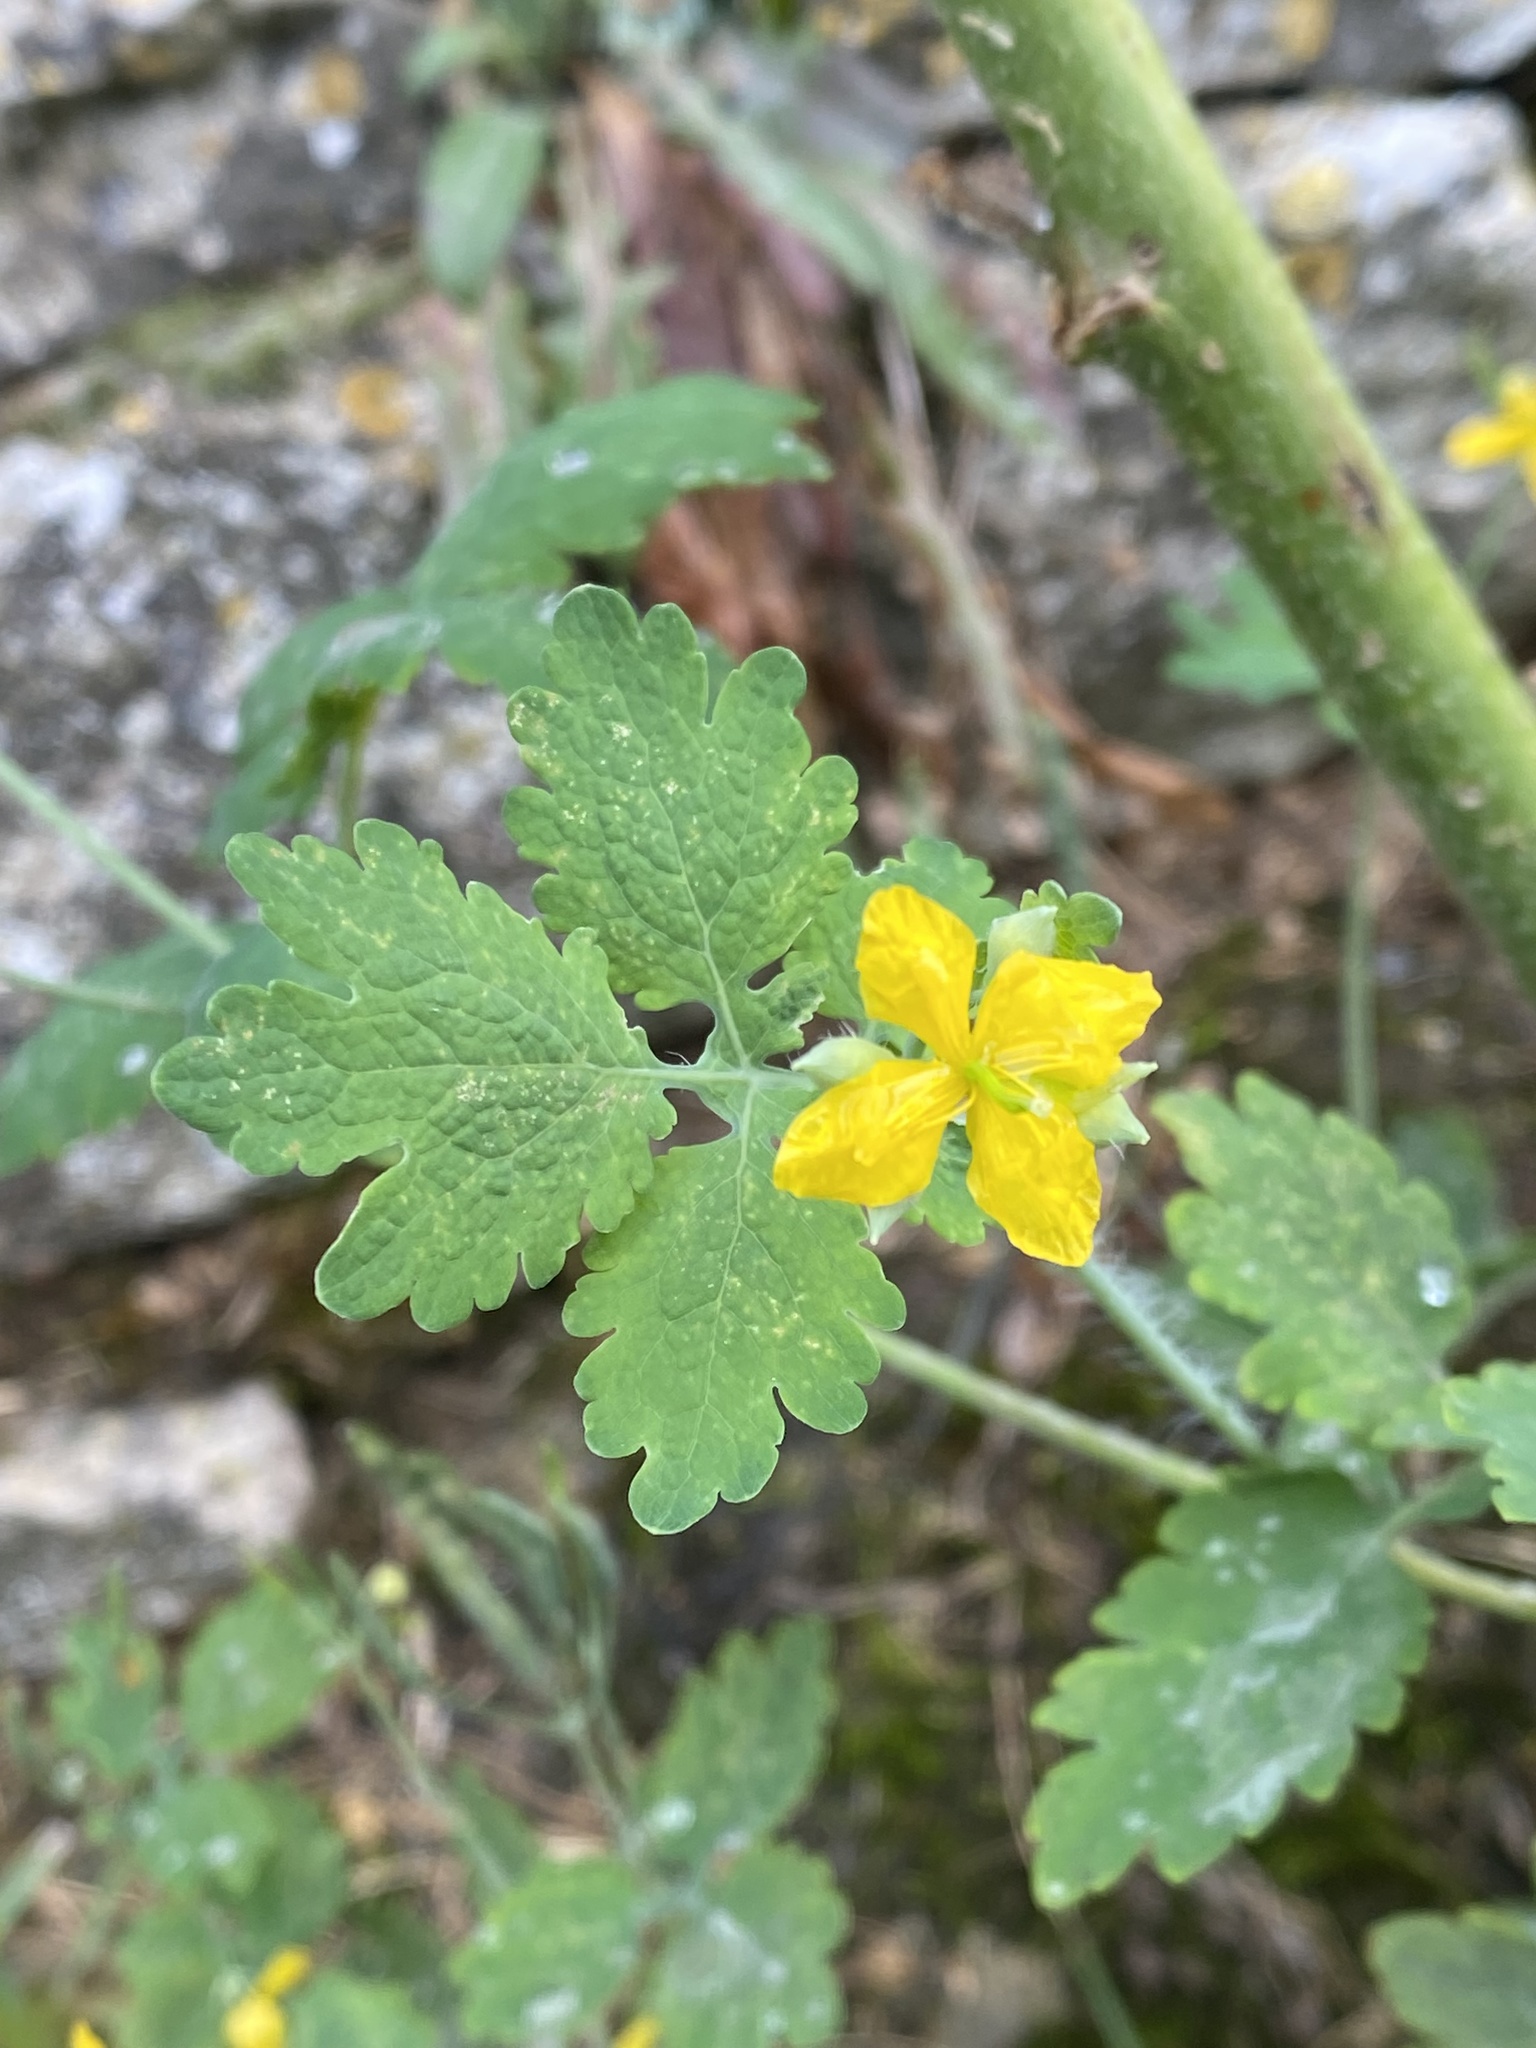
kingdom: Plantae
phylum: Tracheophyta
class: Magnoliopsida
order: Ranunculales
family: Papaveraceae
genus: Chelidonium
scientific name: Chelidonium majus
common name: Greater celandine
